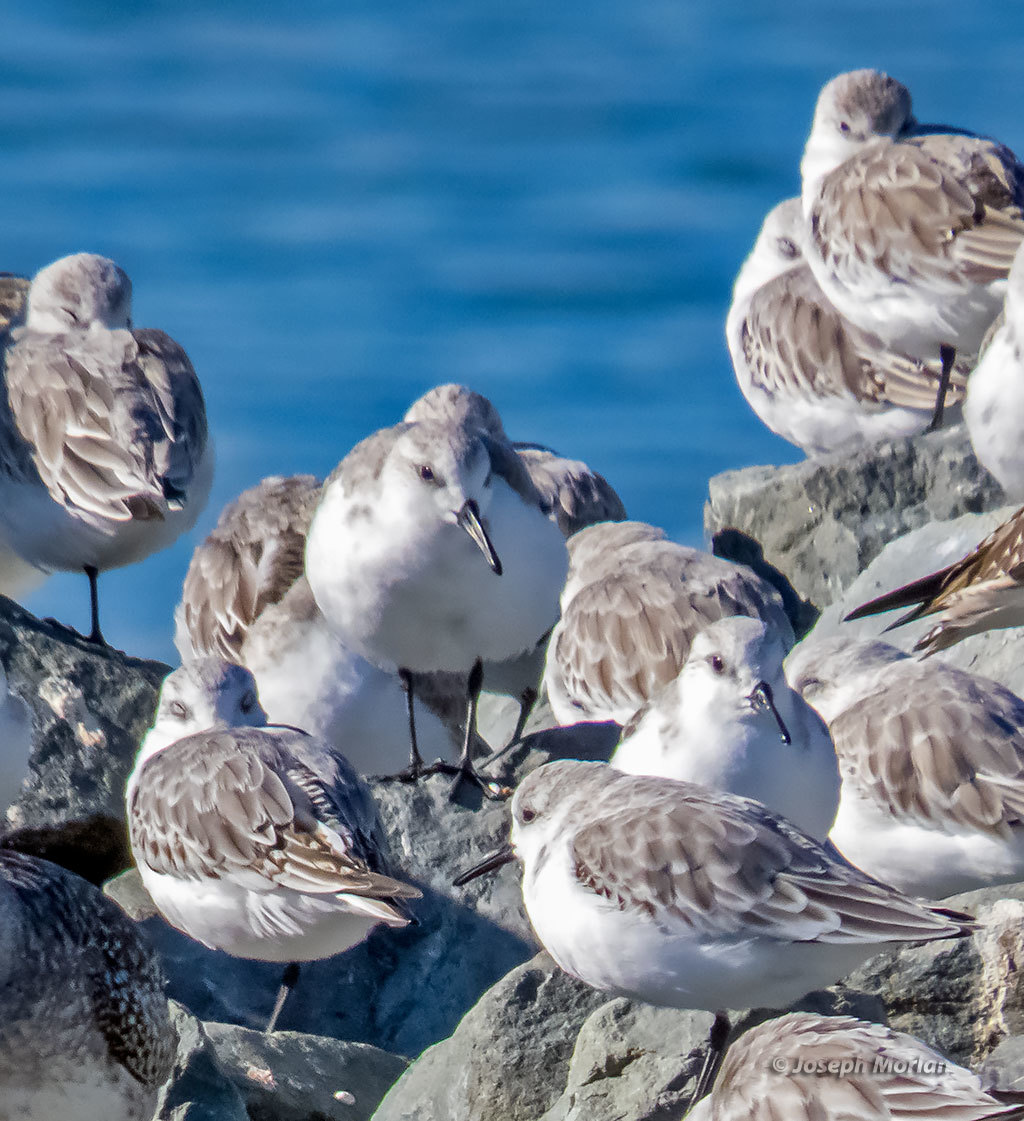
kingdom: Animalia
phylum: Chordata
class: Aves
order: Charadriiformes
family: Scolopacidae
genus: Calidris
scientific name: Calidris alba
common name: Sanderling
